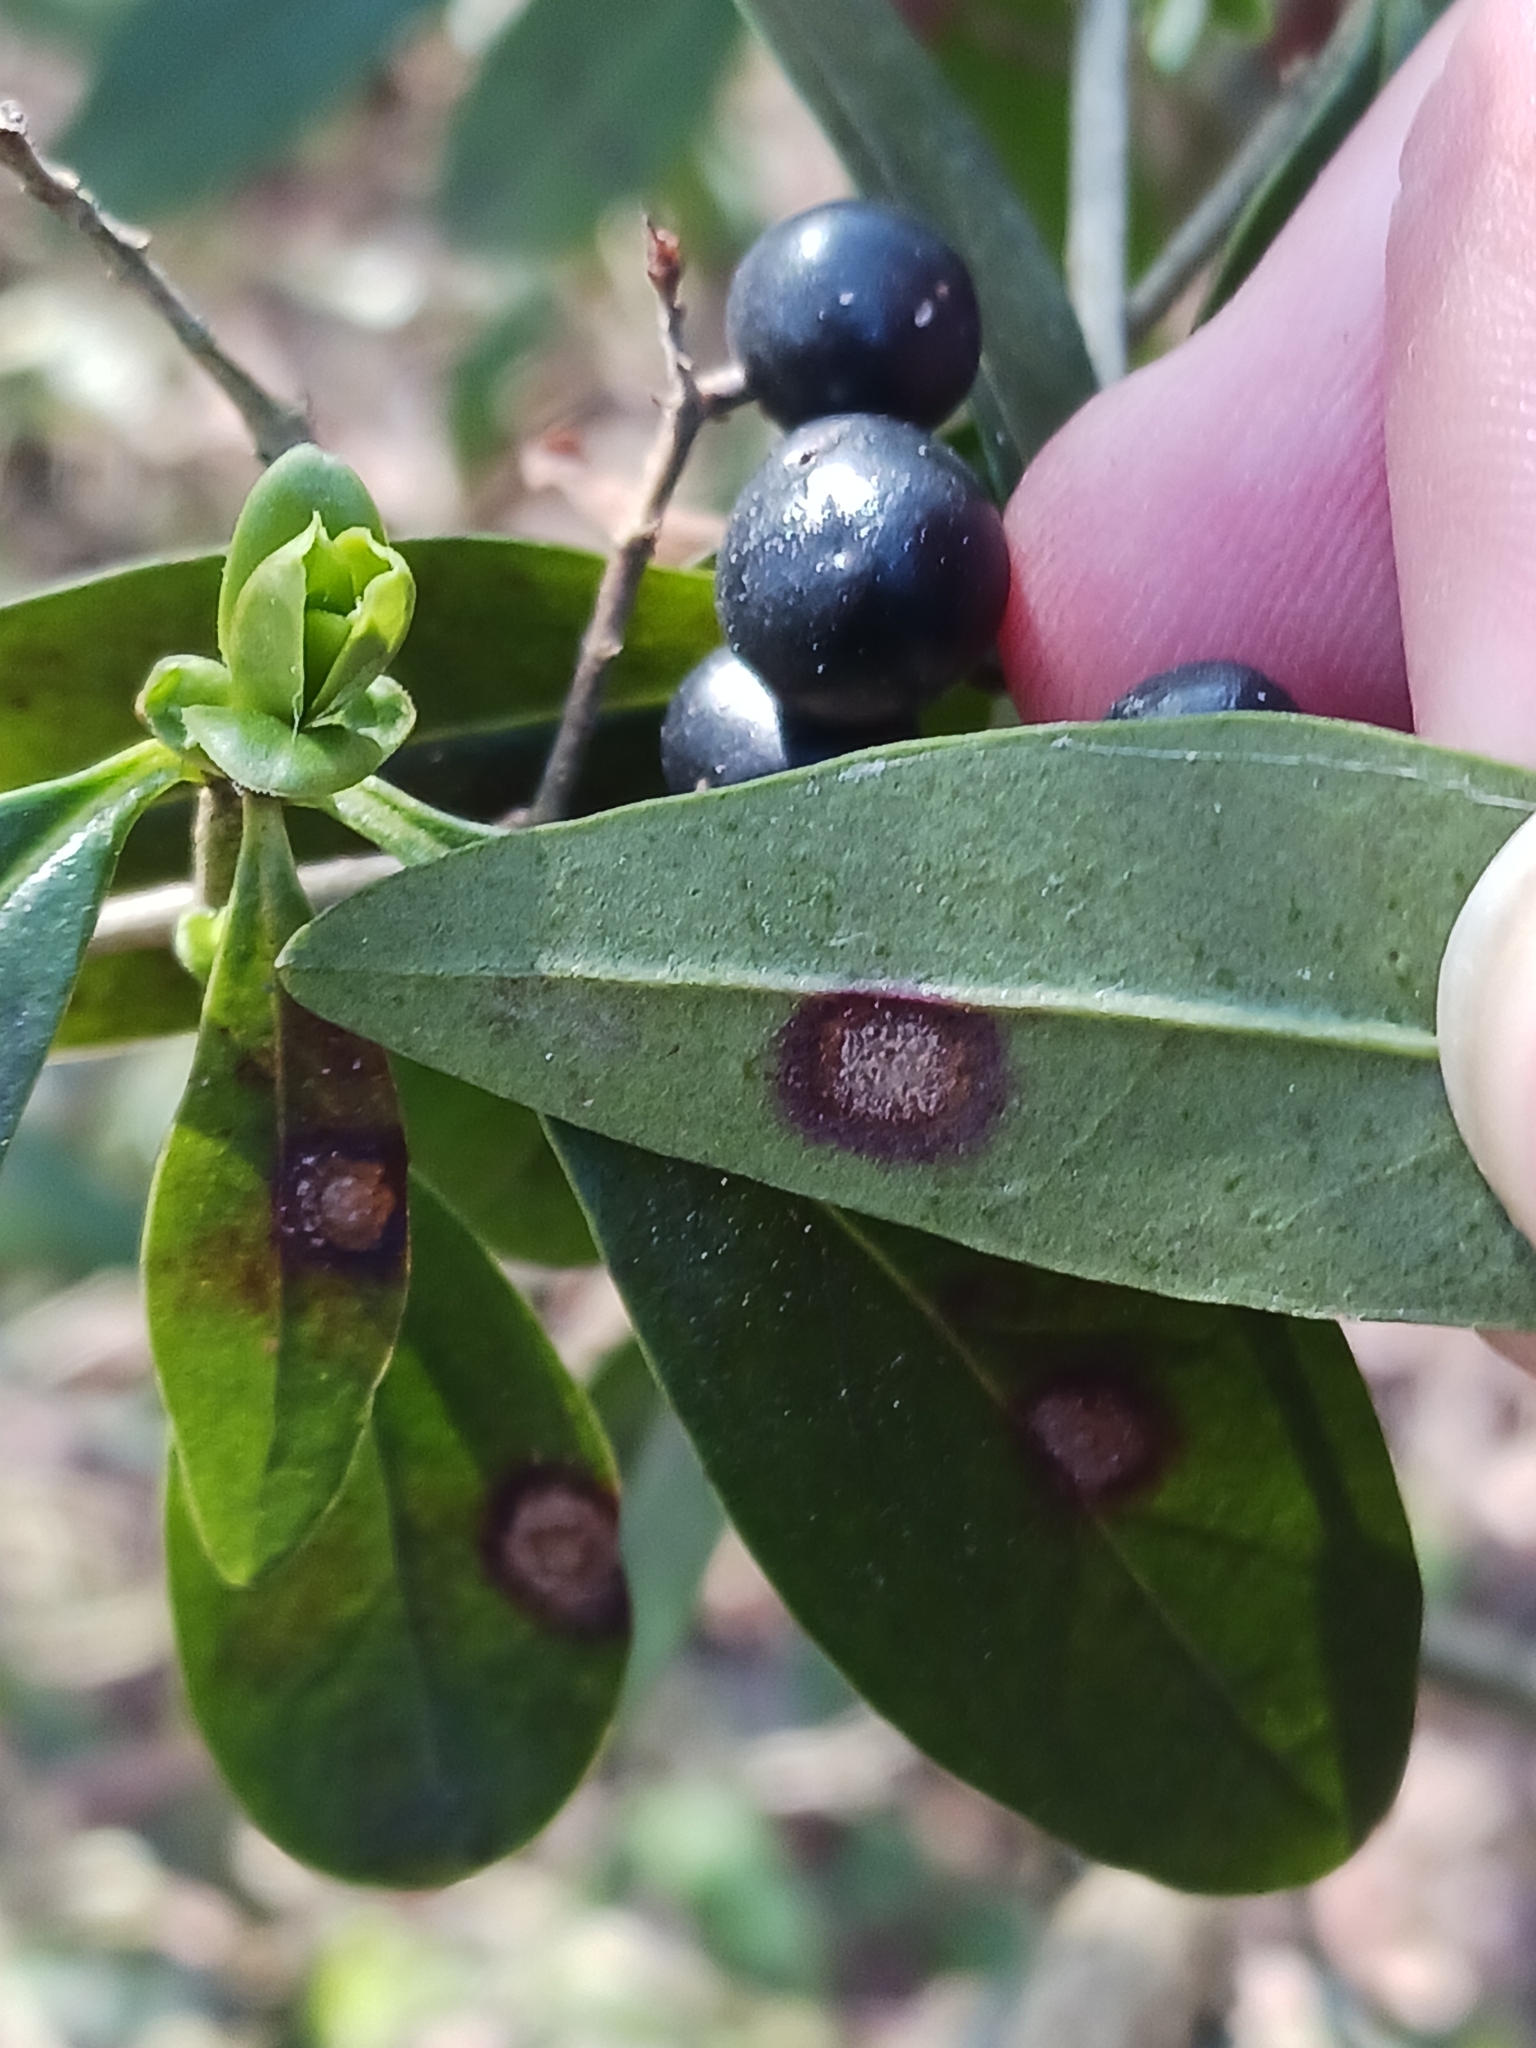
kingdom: Fungi
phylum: Ascomycota
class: Leotiomycetes
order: Helotiales
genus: Thedgonia
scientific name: Thedgonia ligustrina
